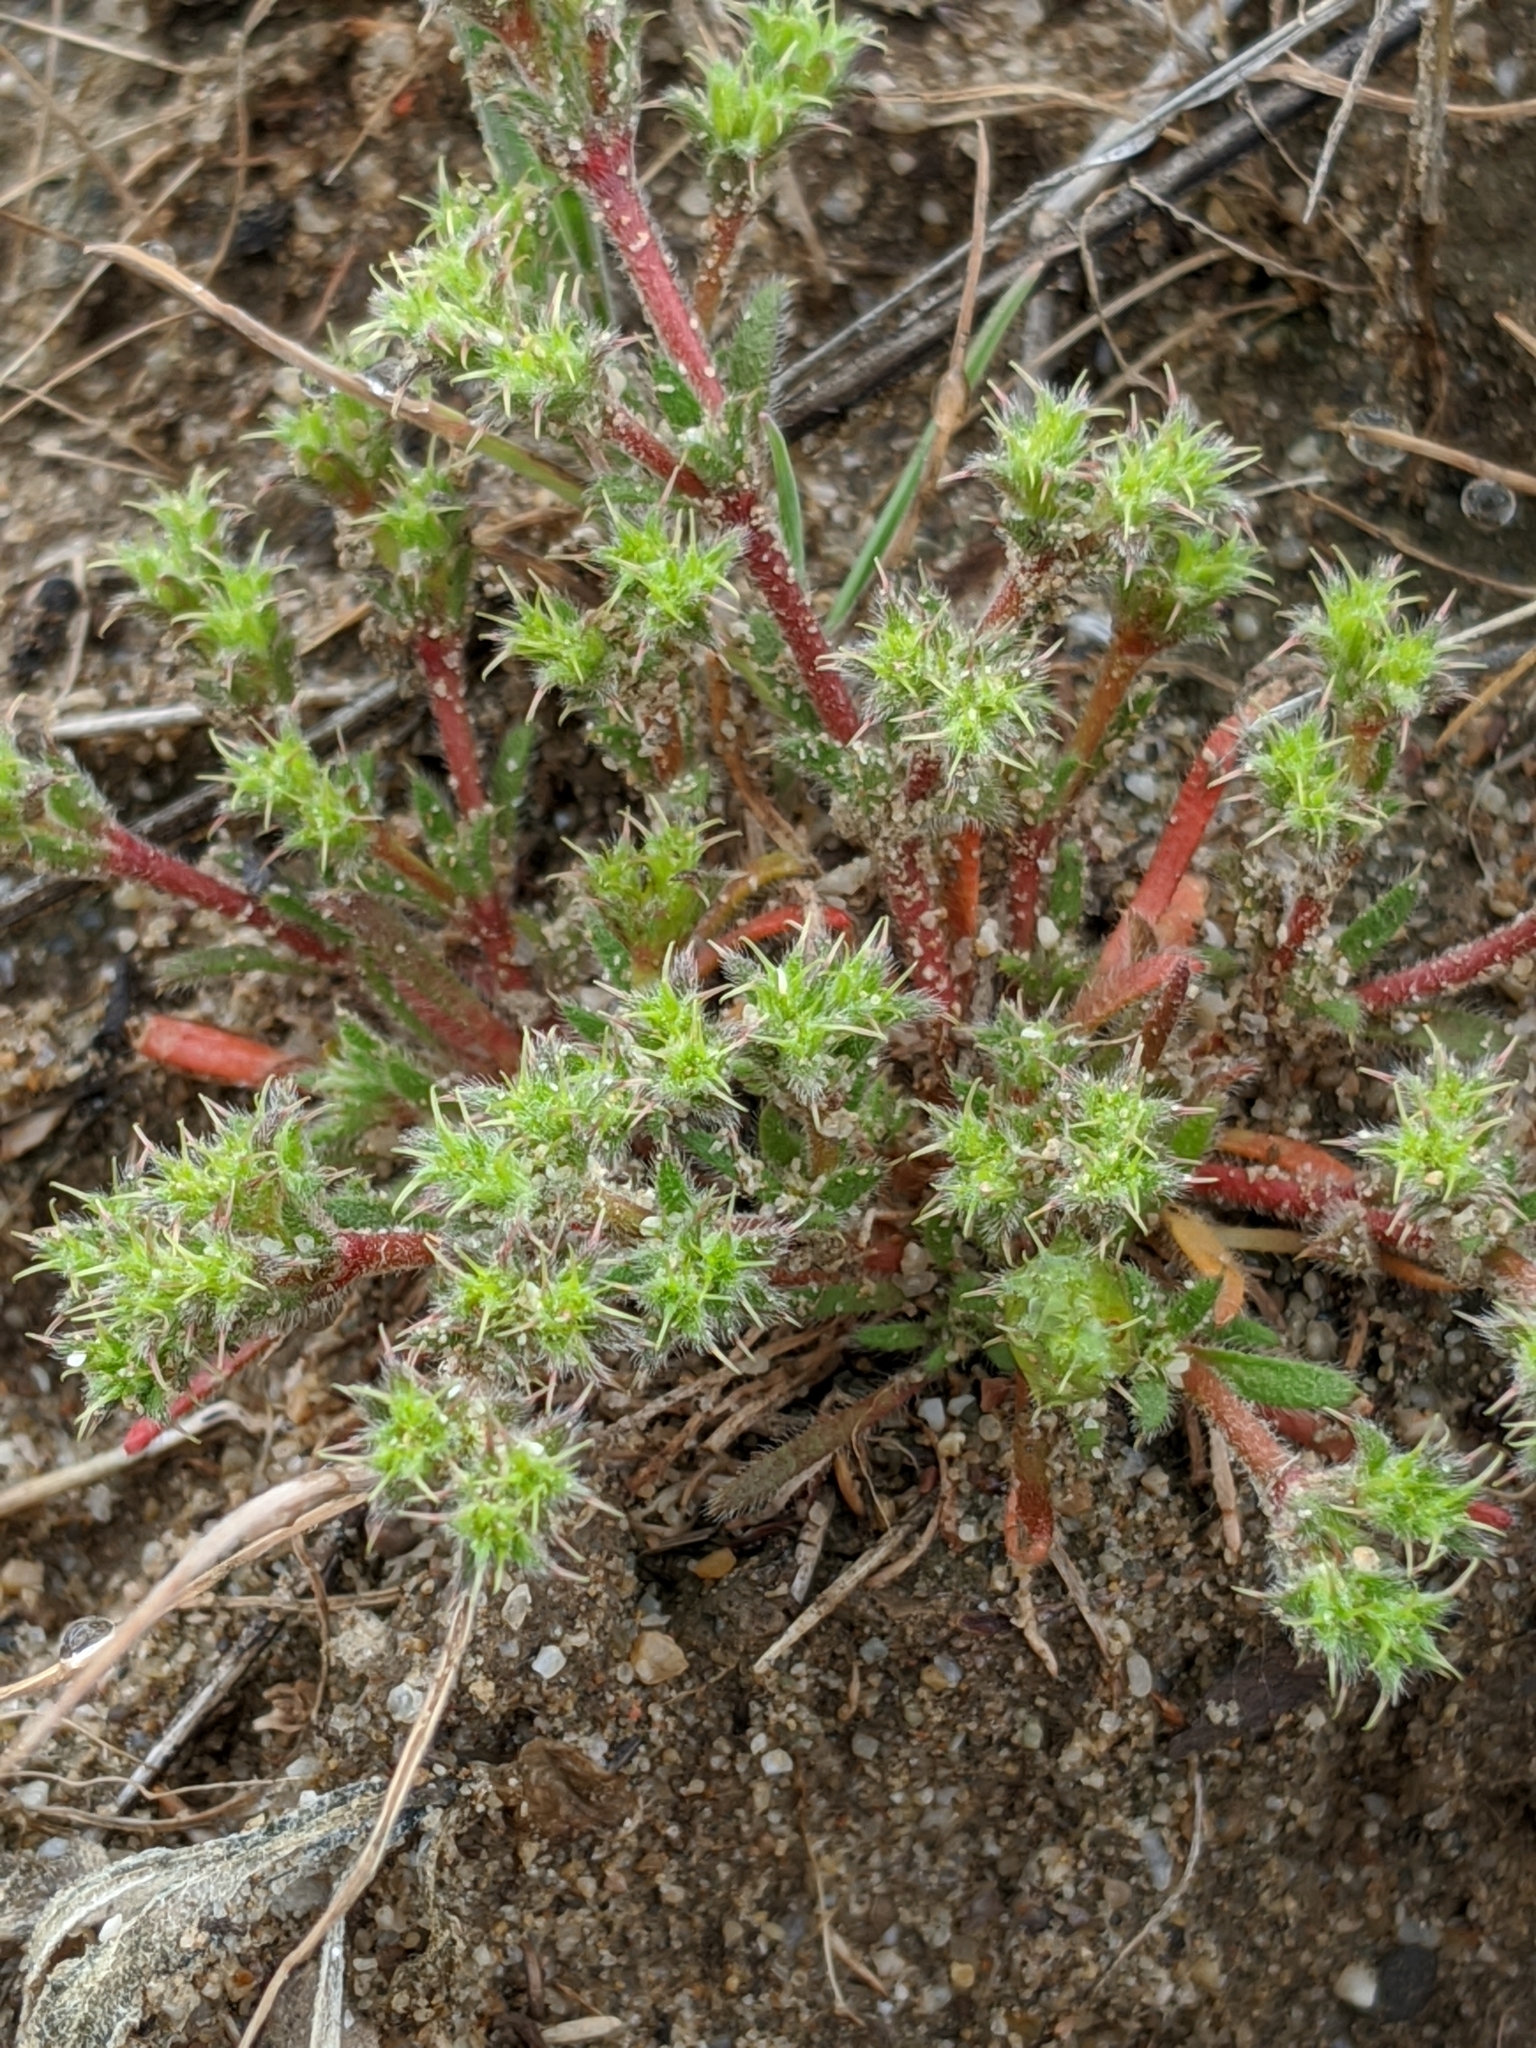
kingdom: Plantae
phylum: Tracheophyta
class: Magnoliopsida
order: Caryophyllales
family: Polygonaceae
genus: Lastarriaea
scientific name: Lastarriaea coriacea
